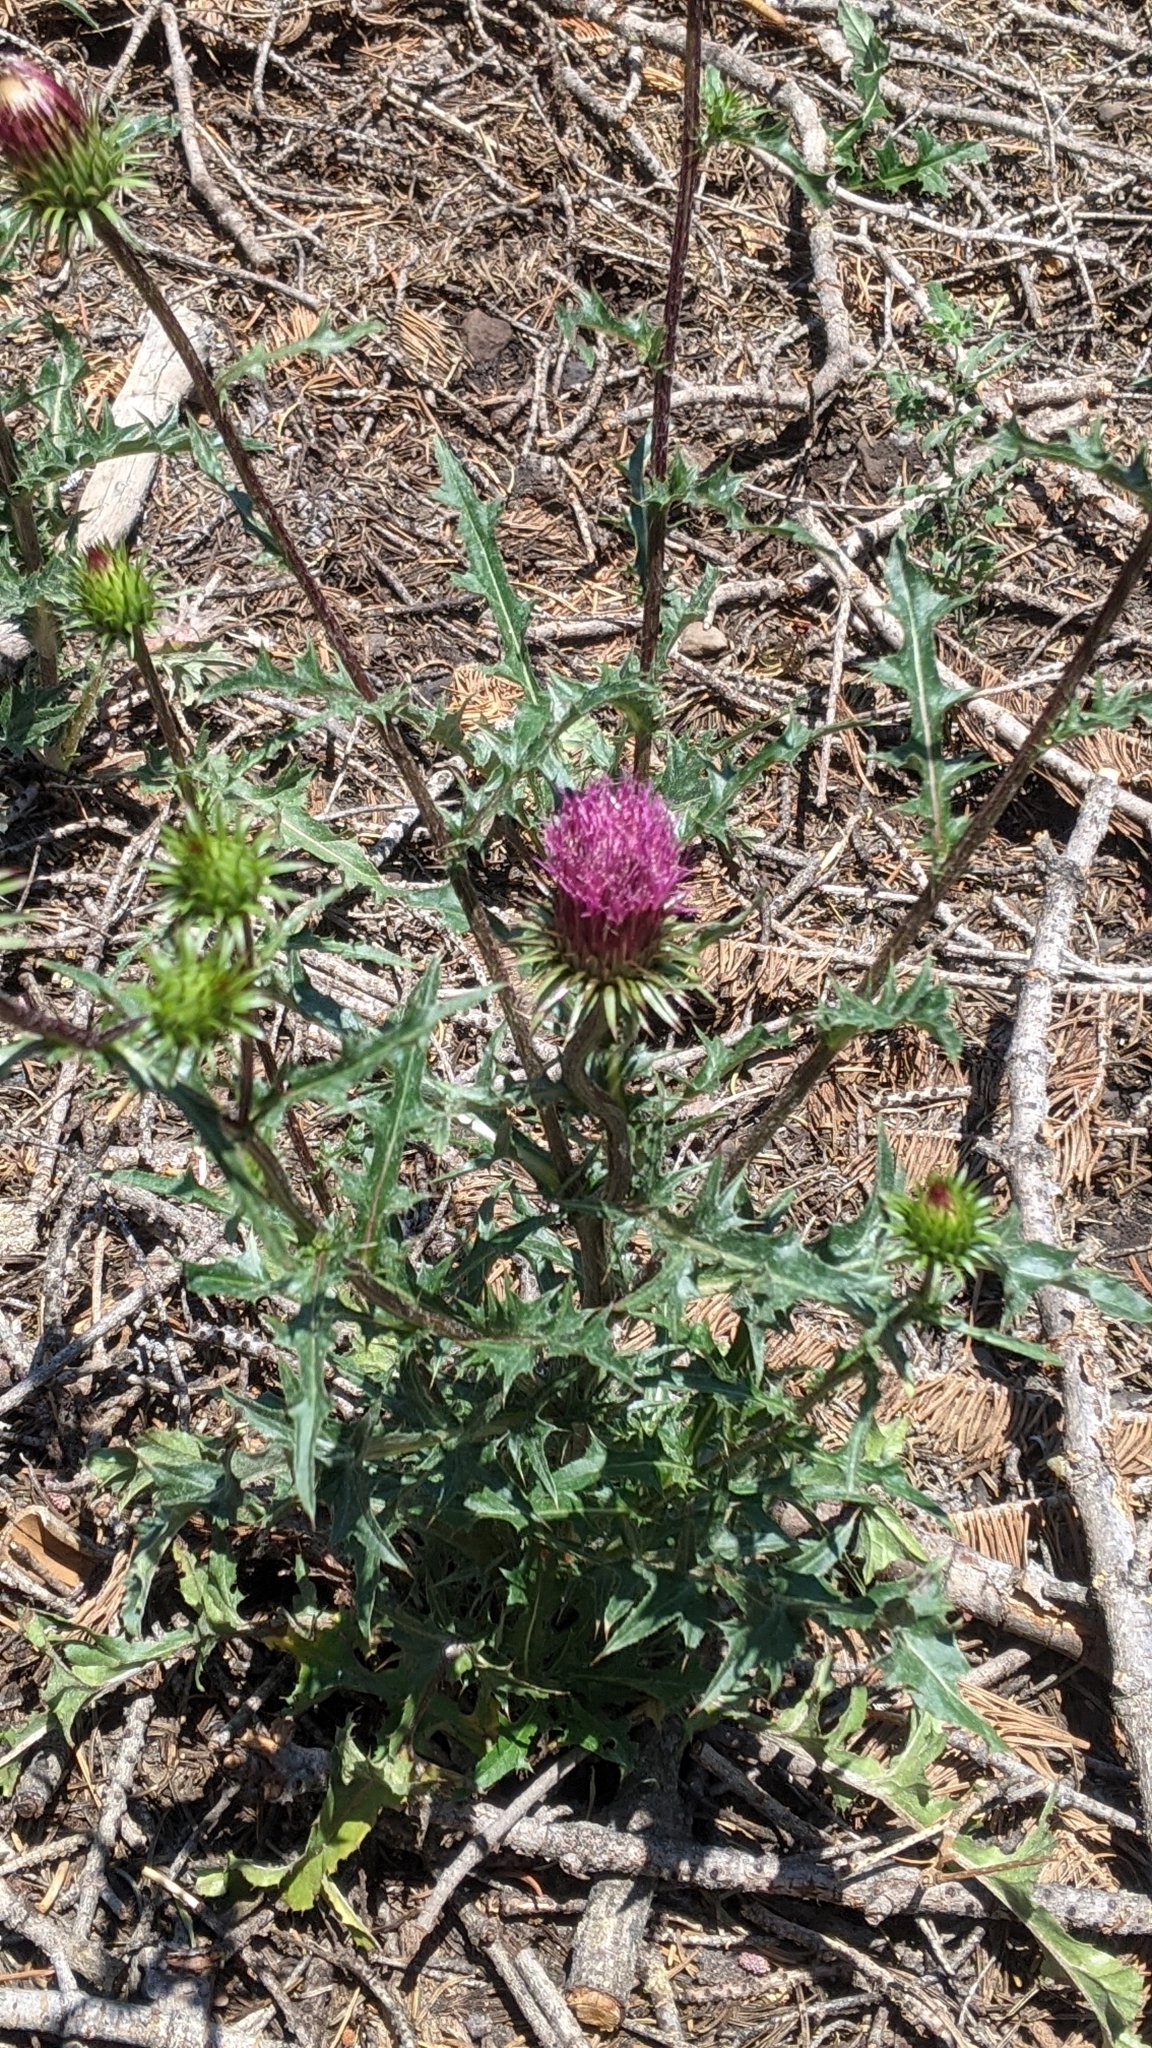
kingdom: Plantae
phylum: Tracheophyta
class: Magnoliopsida
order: Asterales
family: Asteraceae
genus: Cirsium
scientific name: Cirsium andersonii
